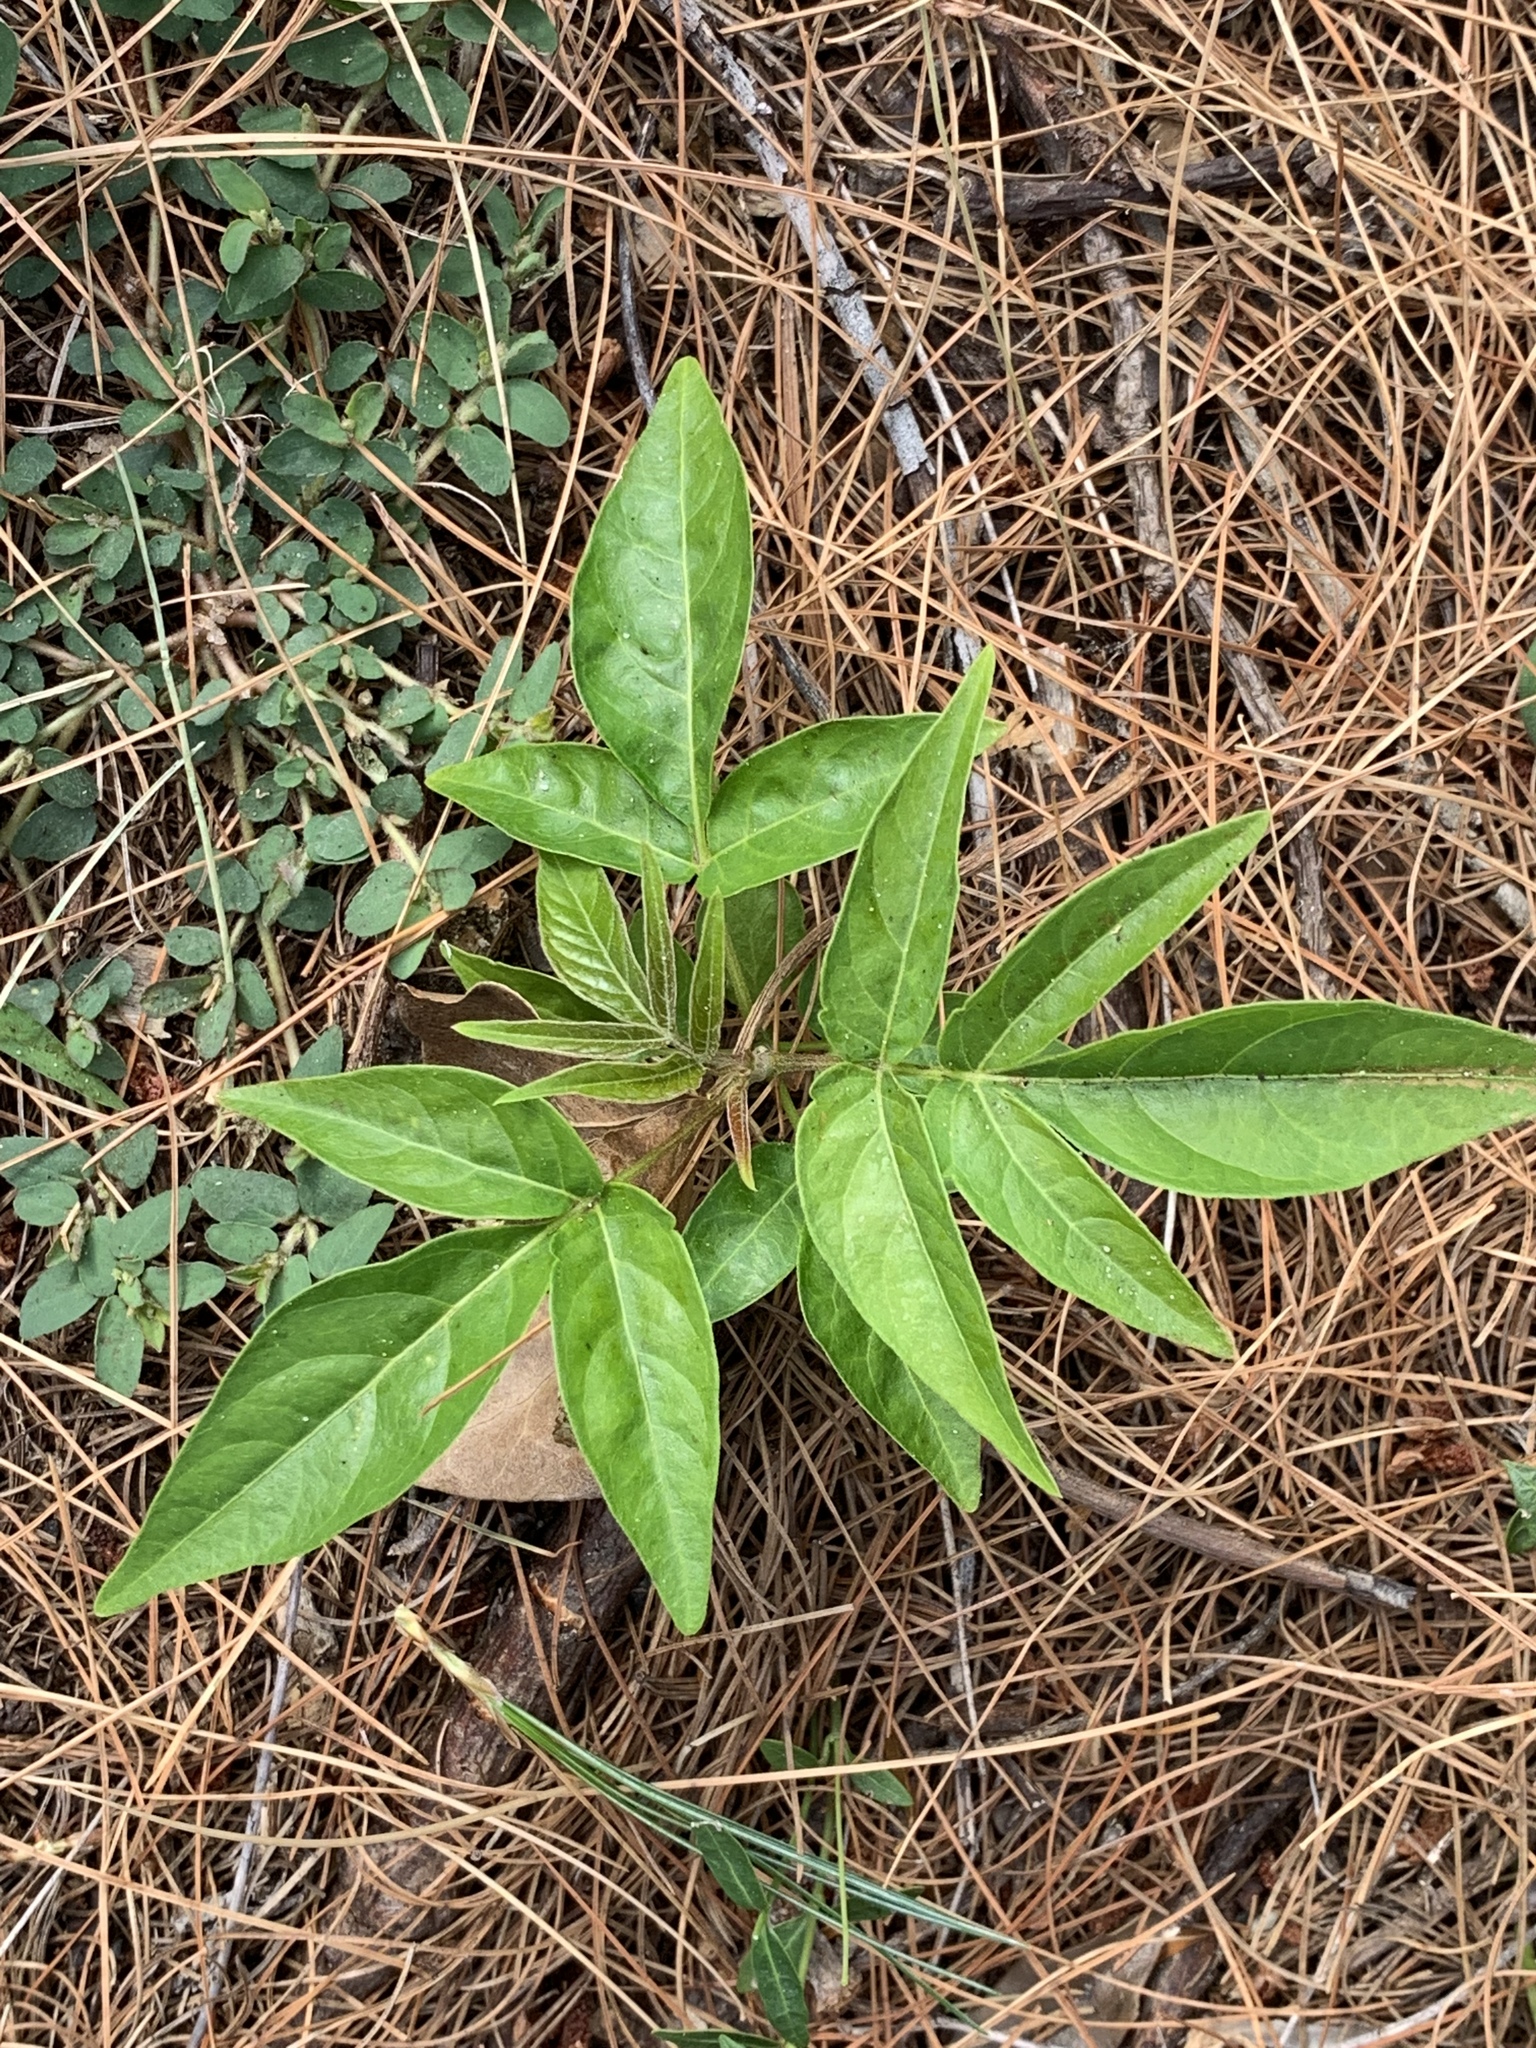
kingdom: Plantae
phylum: Tracheophyta
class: Magnoliopsida
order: Sapindales
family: Simaroubaceae
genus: Ailanthus
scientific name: Ailanthus altissima
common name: Tree-of-heaven
